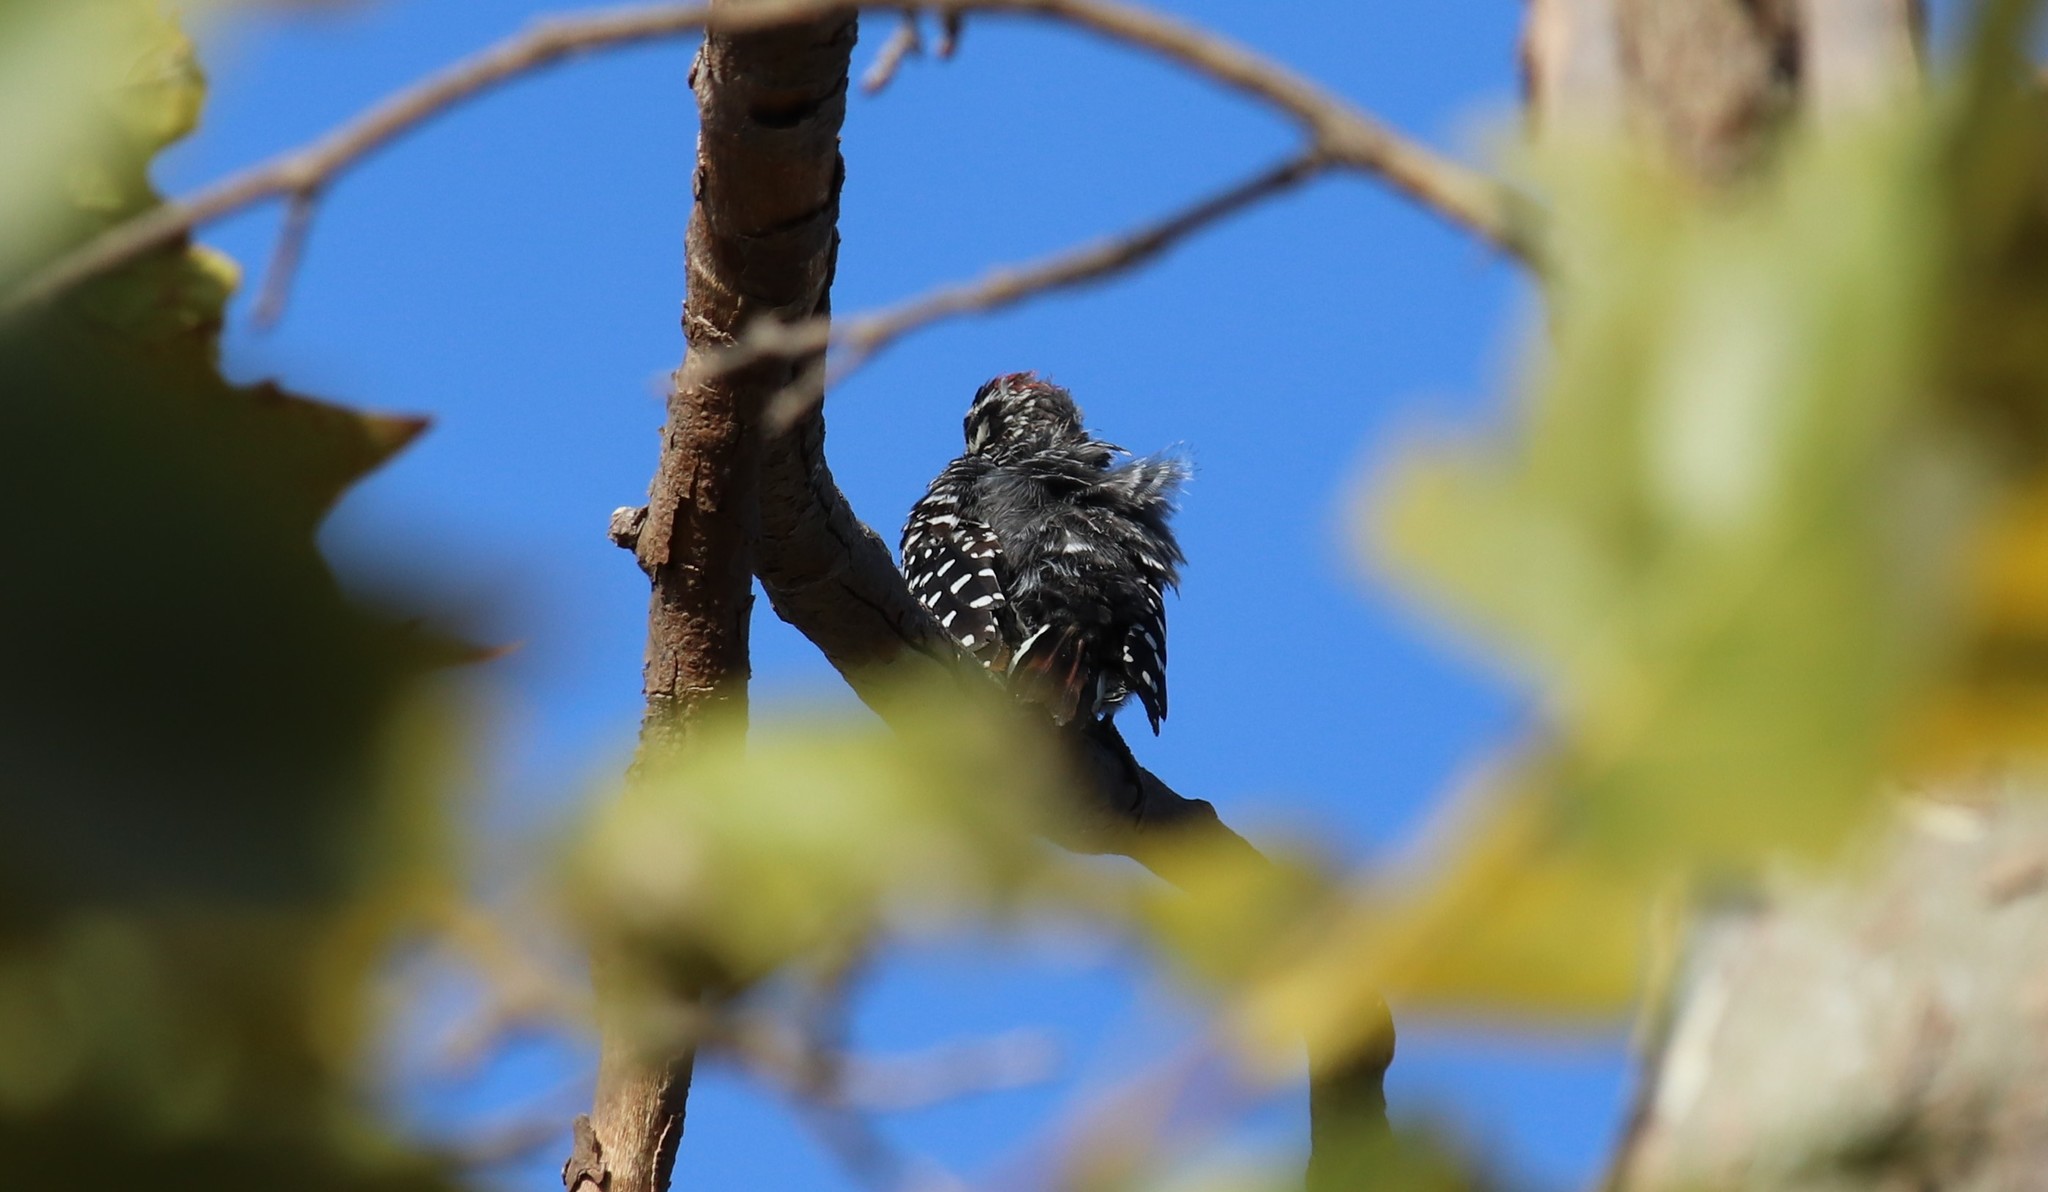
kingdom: Animalia
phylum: Chordata
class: Aves
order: Piciformes
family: Picidae
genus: Dryobates
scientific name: Dryobates nuttallii
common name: Nuttall's woodpecker
